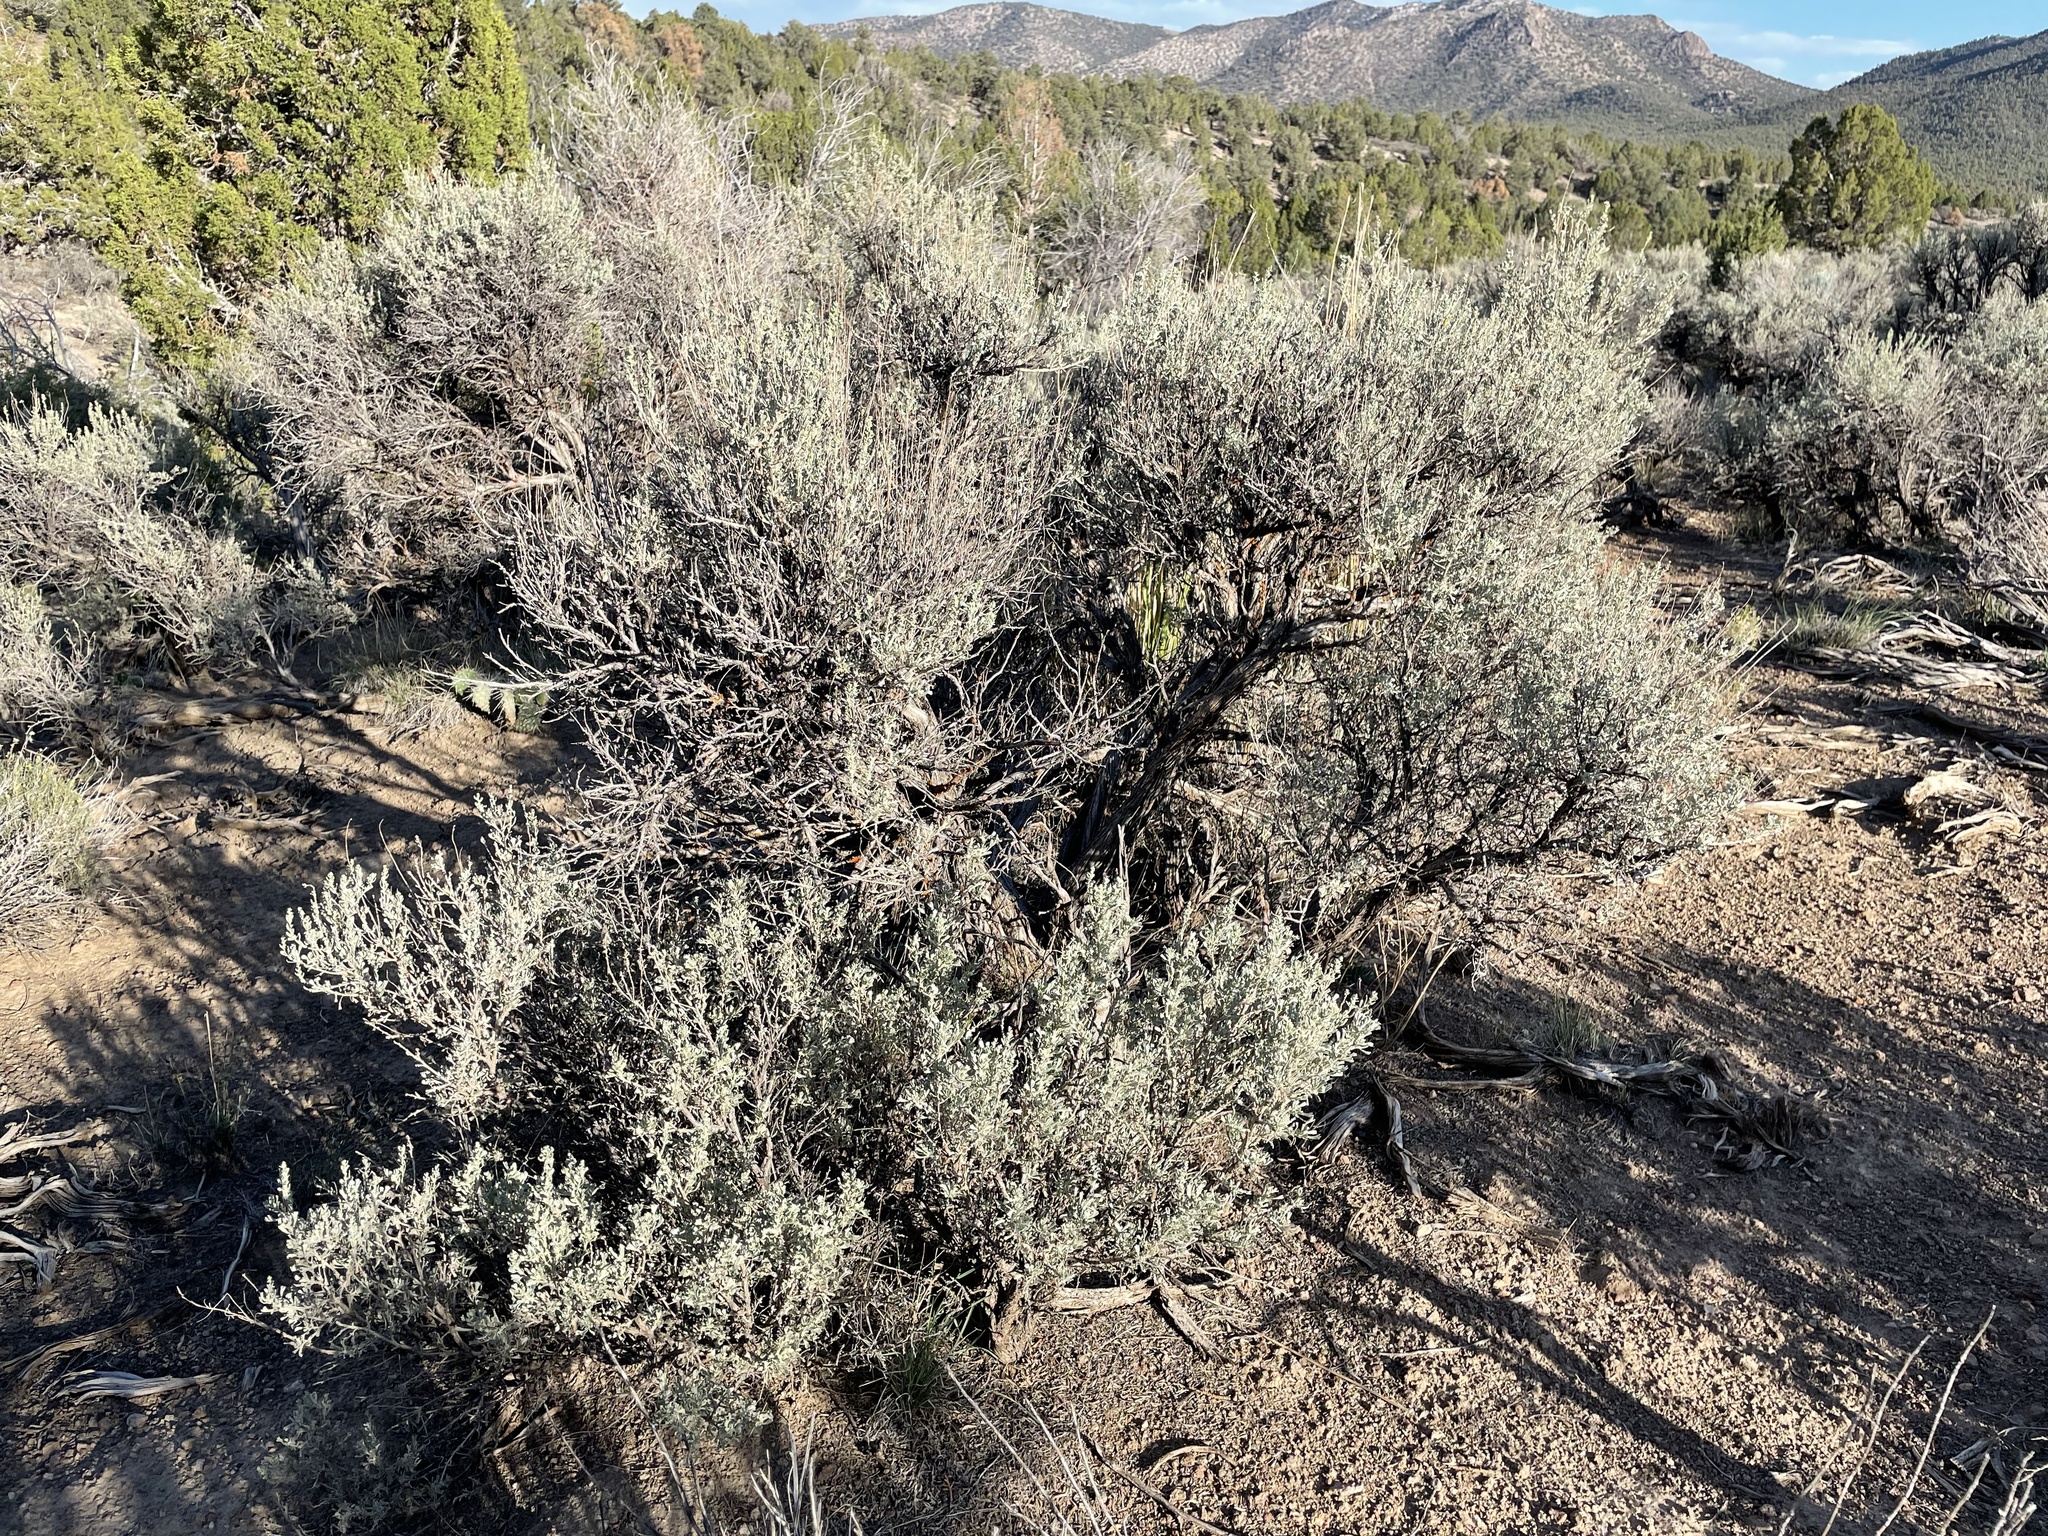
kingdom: Plantae
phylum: Tracheophyta
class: Magnoliopsida
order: Asterales
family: Asteraceae
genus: Artemisia
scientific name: Artemisia tridentata
